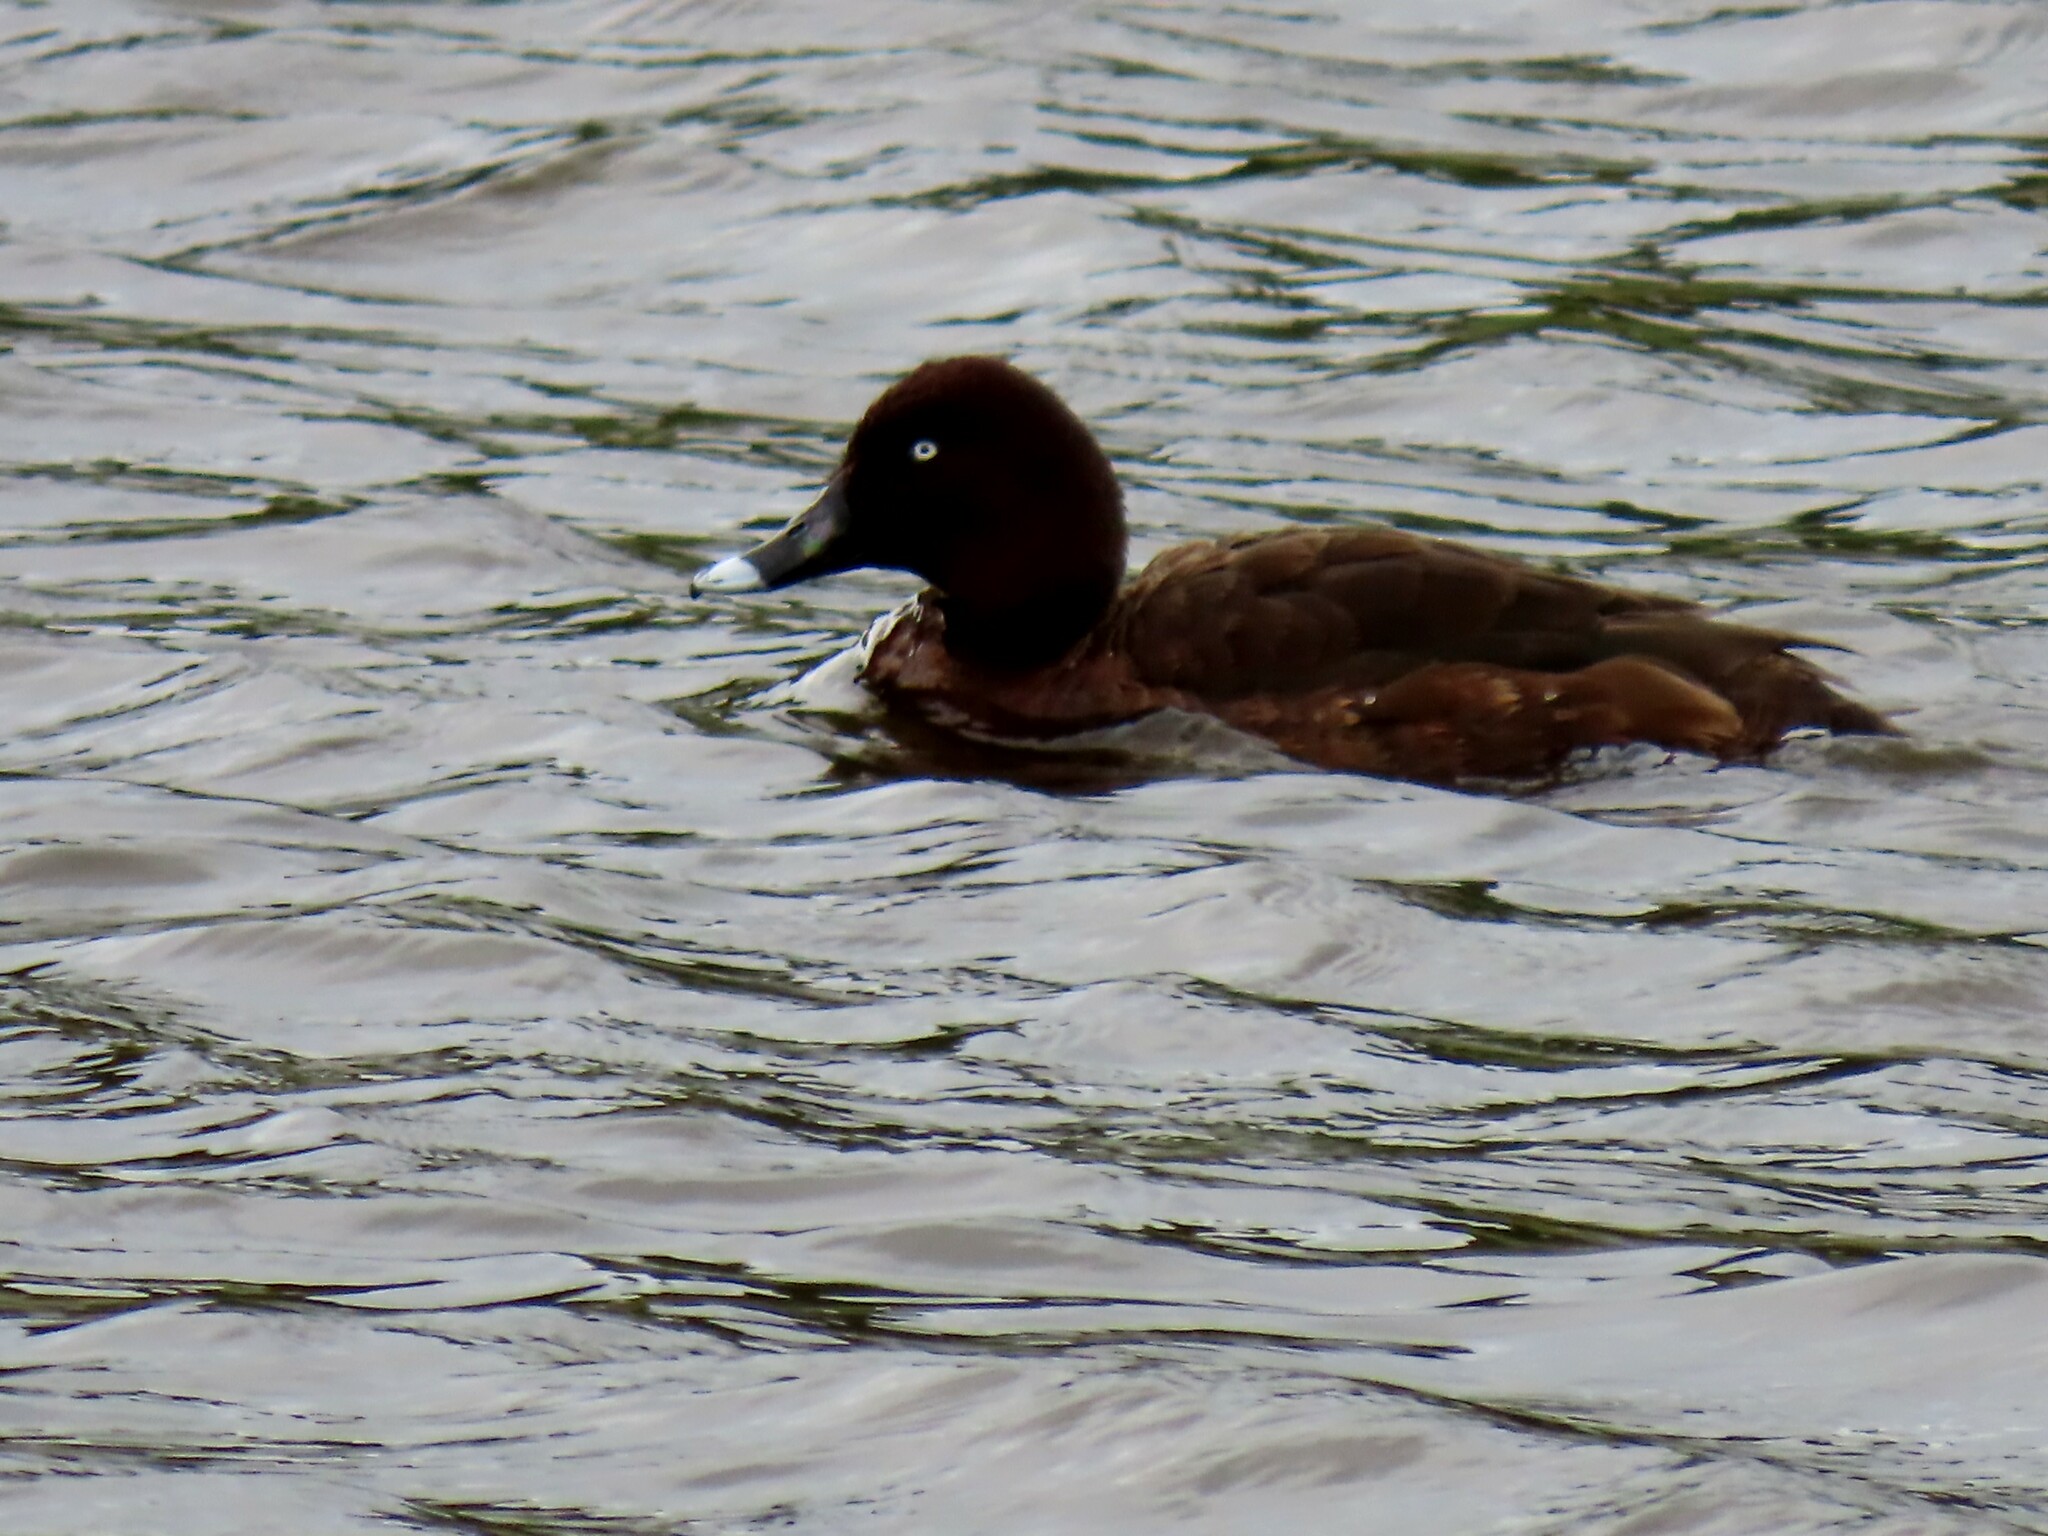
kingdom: Animalia
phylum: Chordata
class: Aves
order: Anseriformes
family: Anatidae
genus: Aythya
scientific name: Aythya australis
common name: Hardhead
